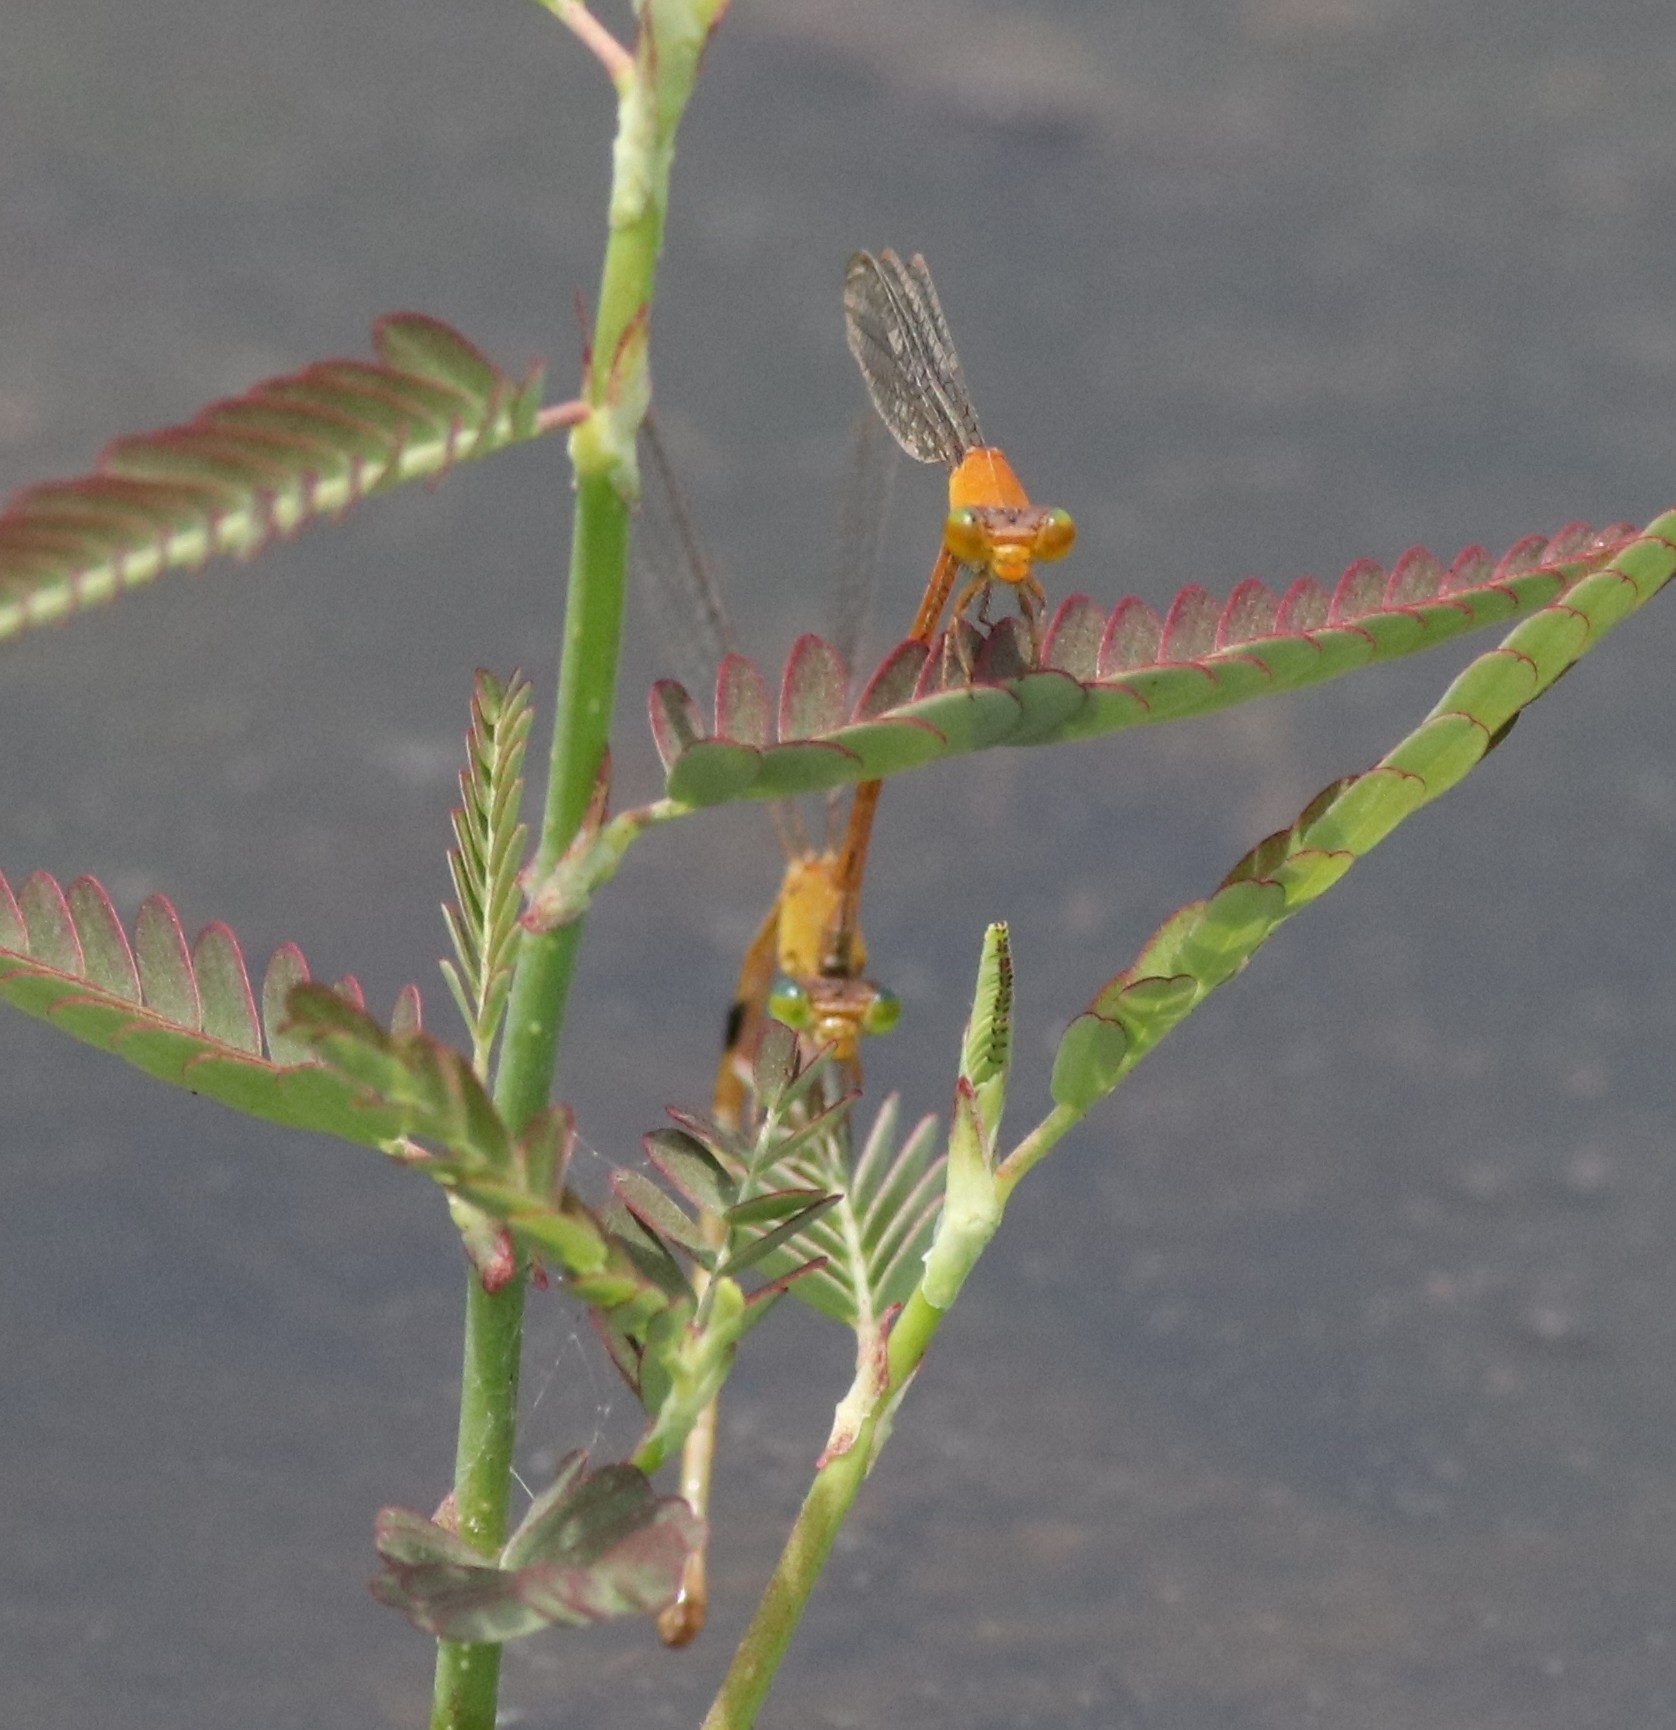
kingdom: Animalia
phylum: Arthropoda
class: Insecta
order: Odonata
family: Coenagrionidae
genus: Ceriagrion
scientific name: Ceriagrion rubiae
